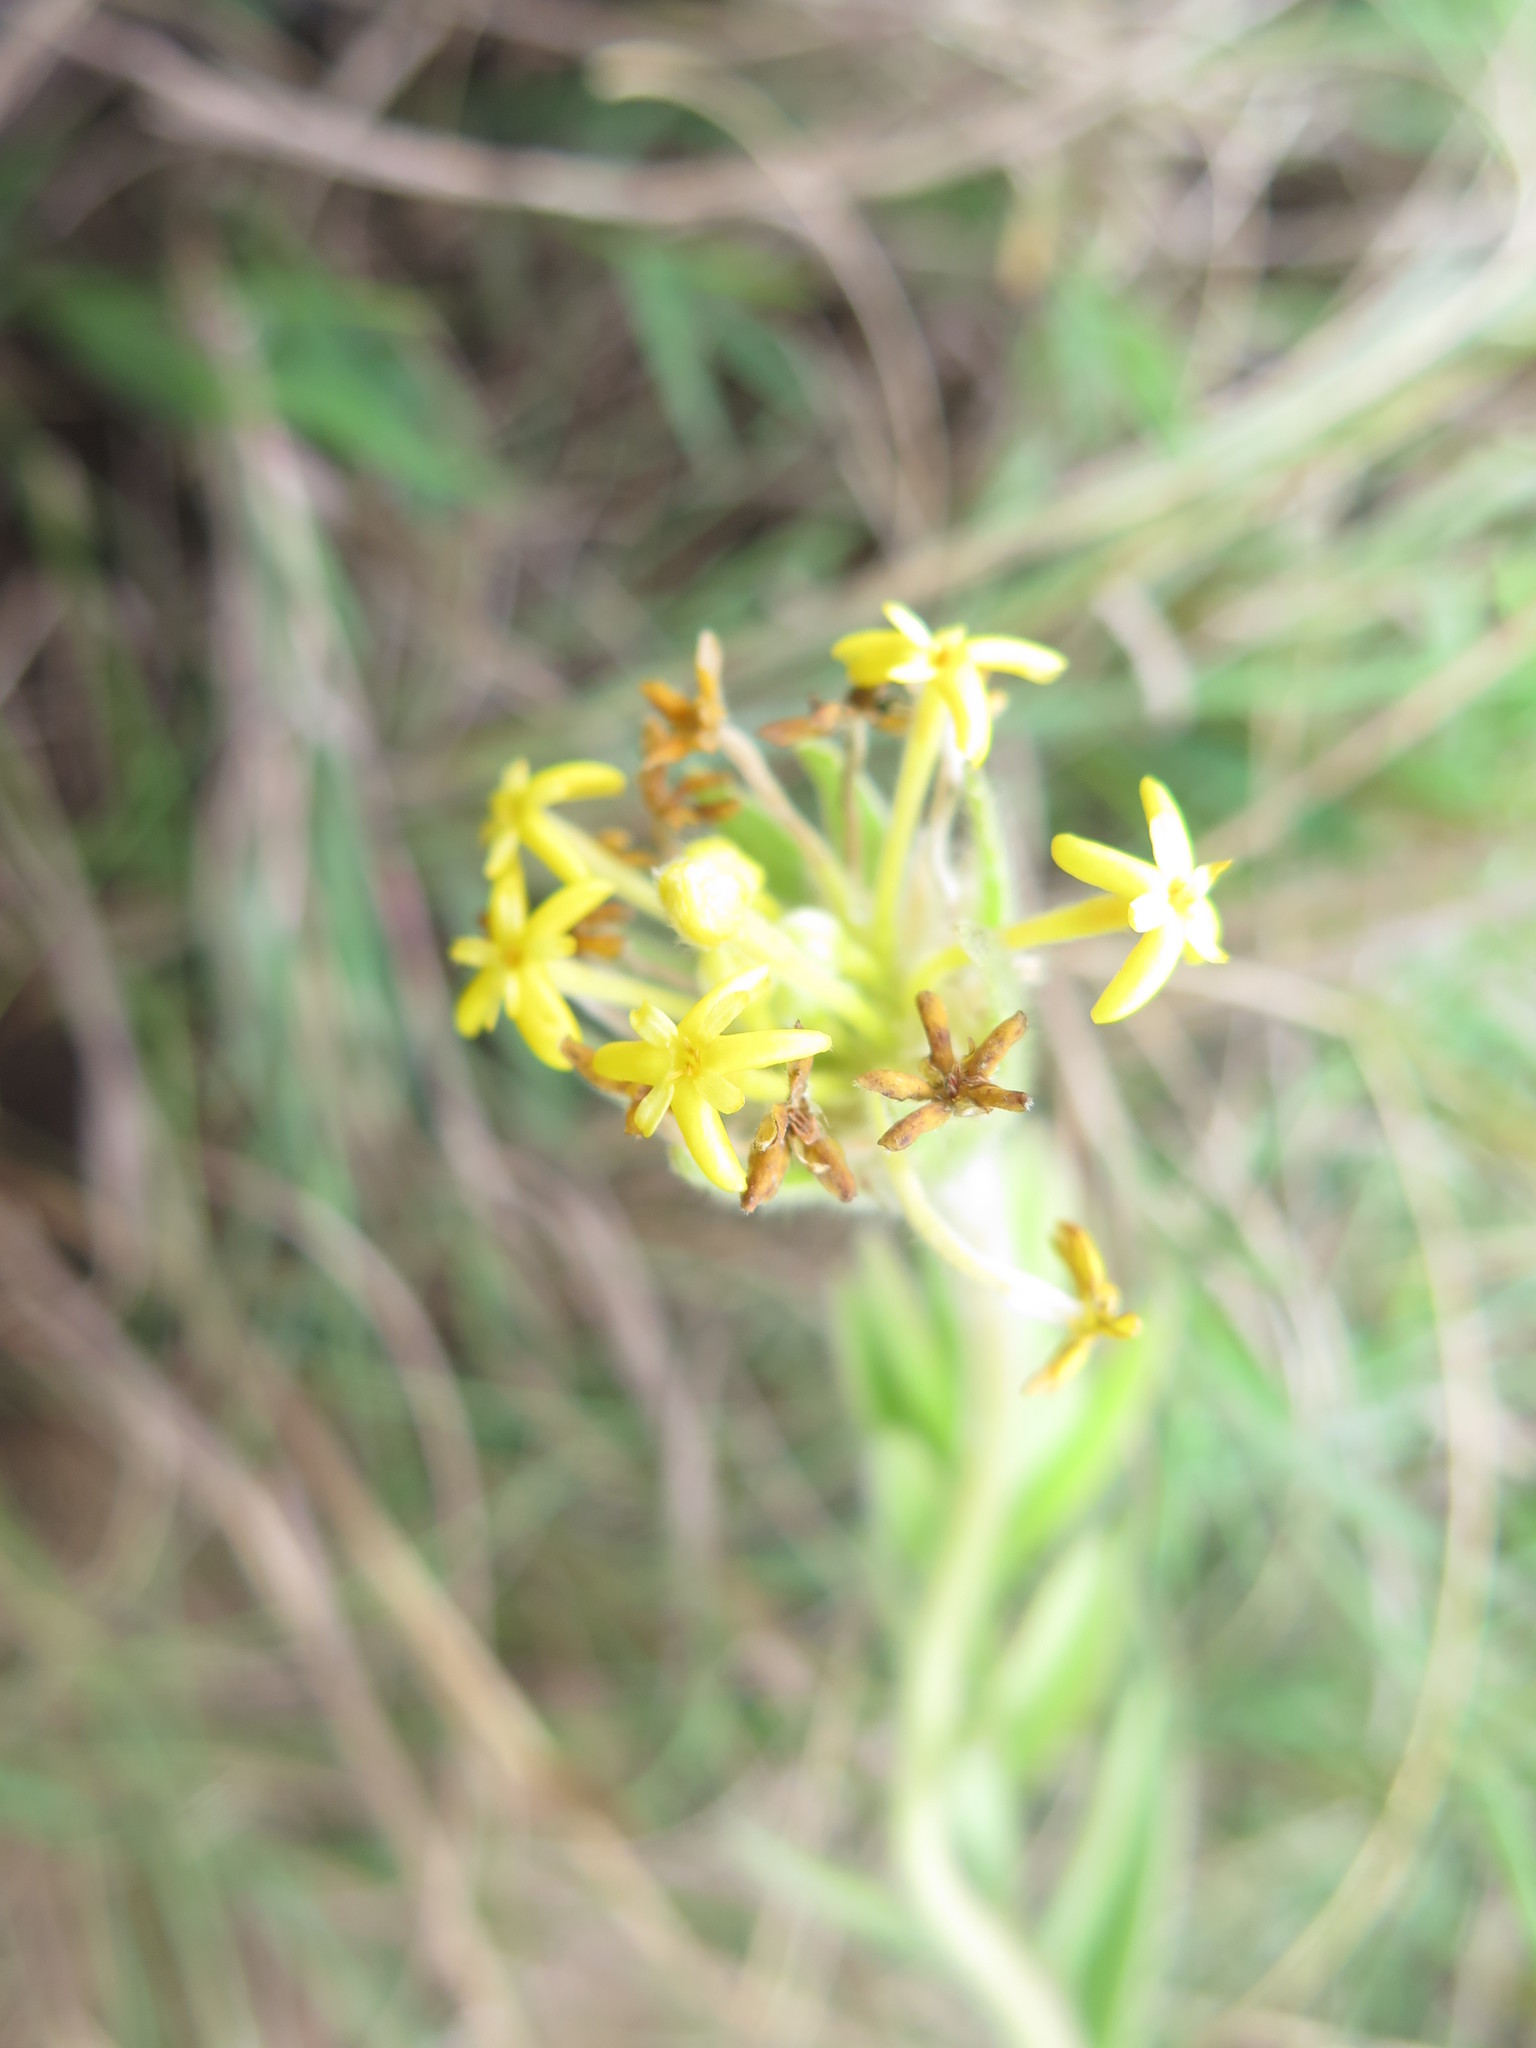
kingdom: Plantae
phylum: Tracheophyta
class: Magnoliopsida
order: Malvales
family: Thymelaeaceae
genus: Gnidia
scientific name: Gnidia kraussiana
